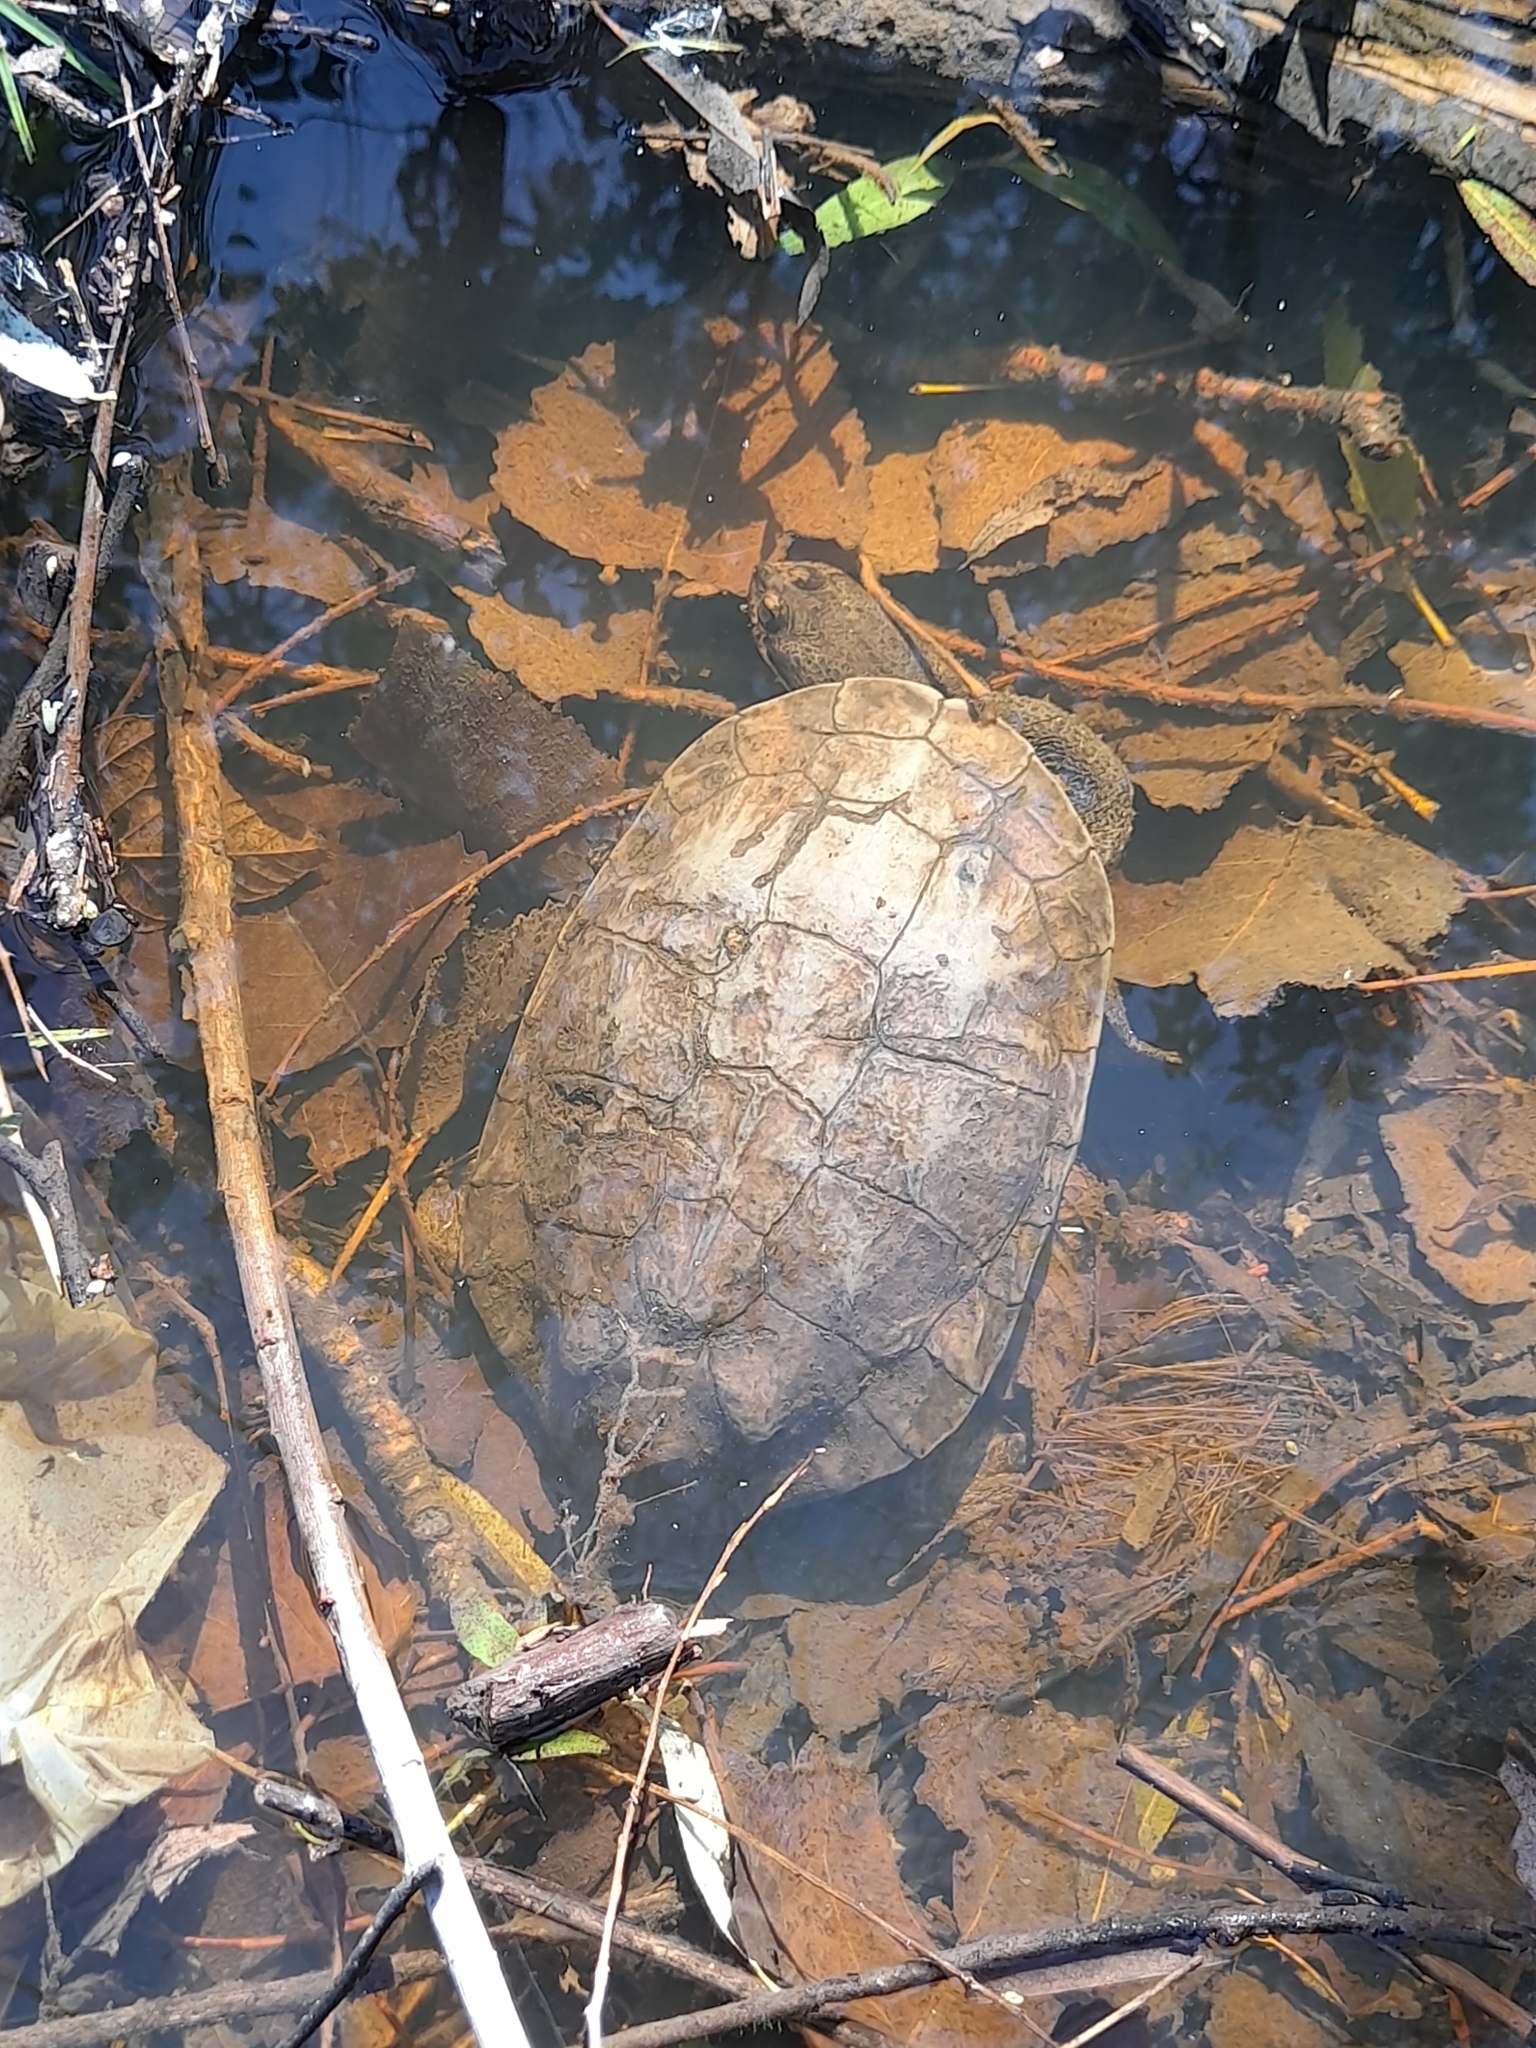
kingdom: Animalia
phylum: Chordata
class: Testudines
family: Chelidae
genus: Hydromedusa
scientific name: Hydromedusa tectifera
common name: Argentine snake-necked turtle
